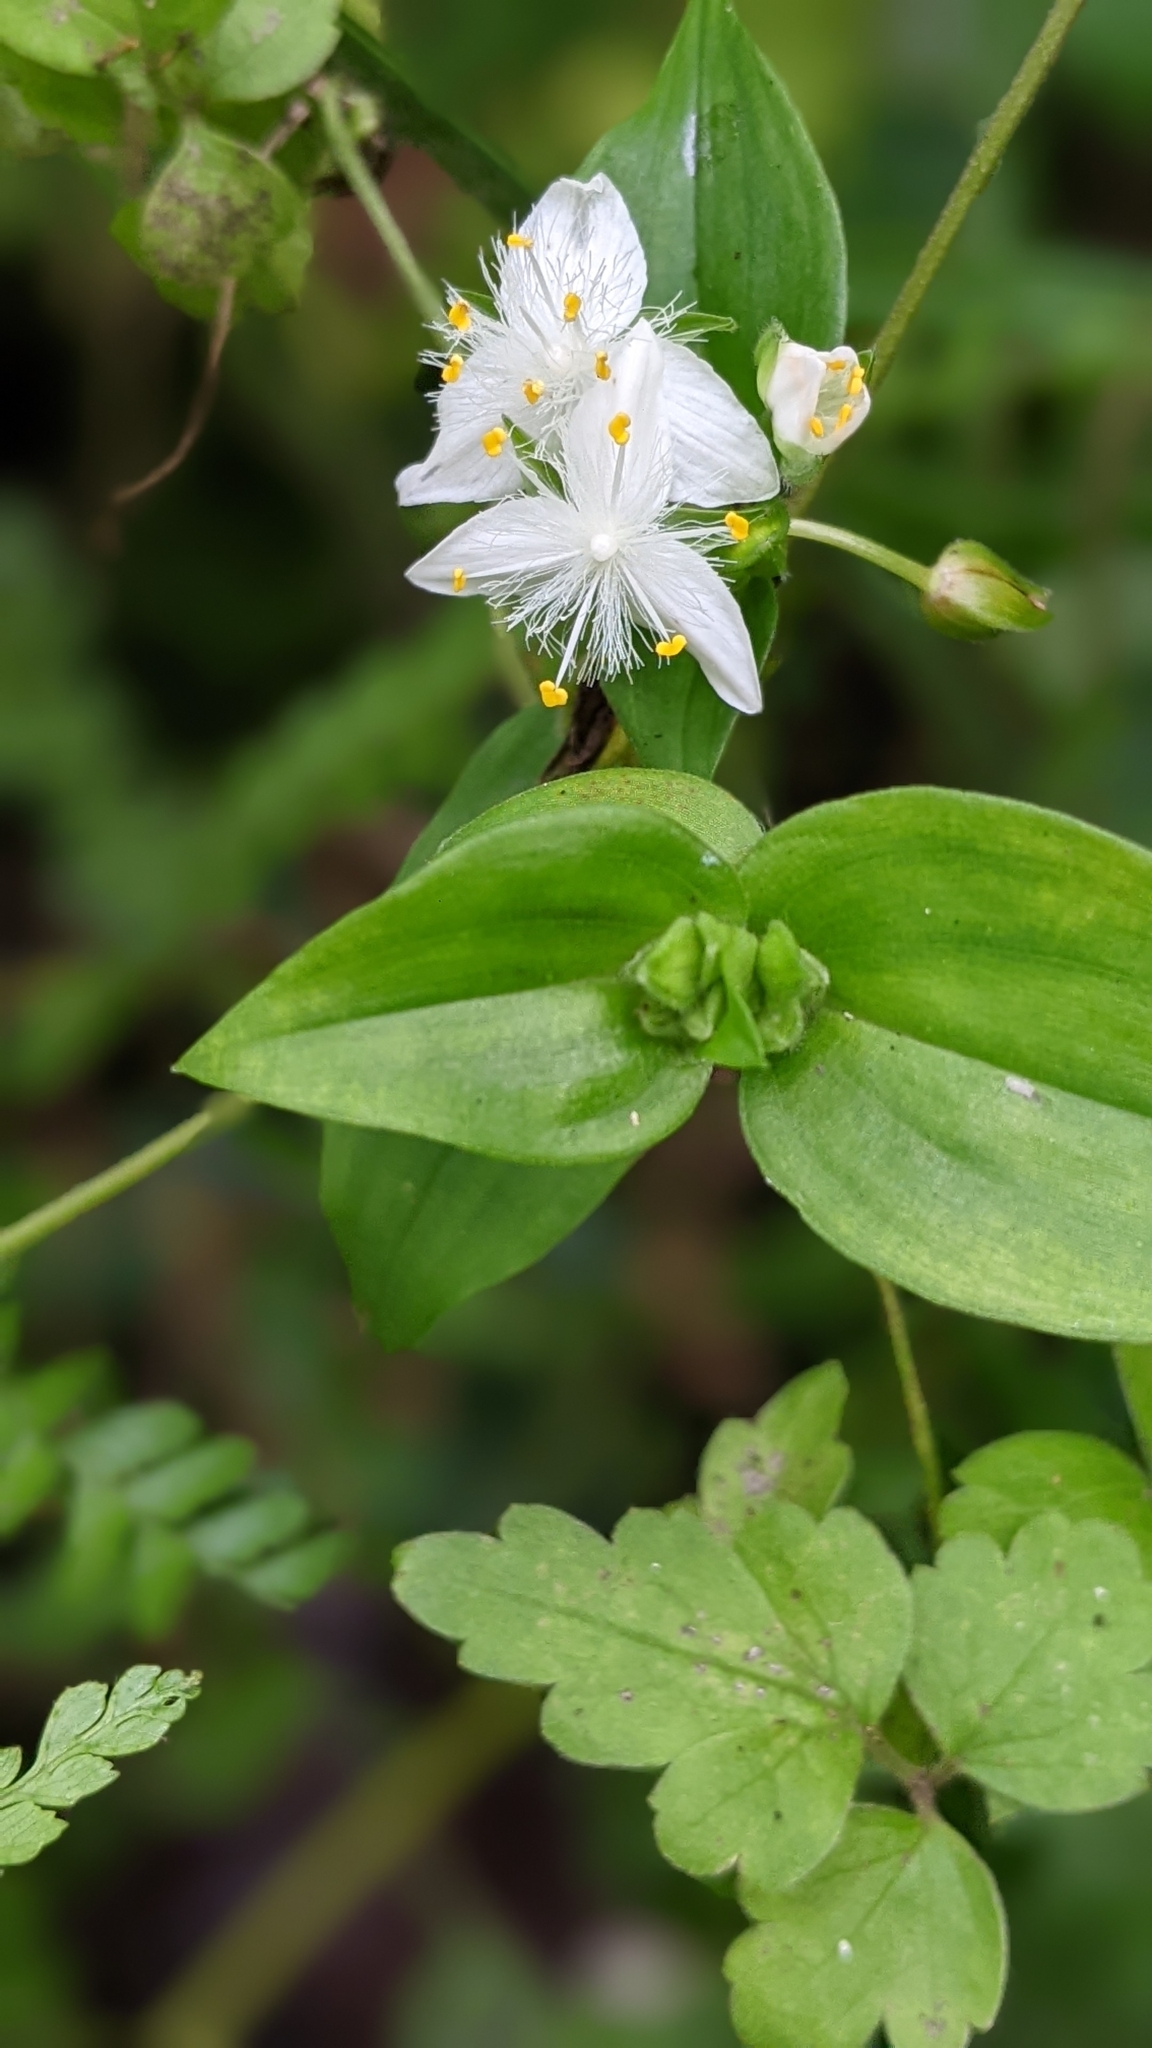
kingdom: Plantae
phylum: Tracheophyta
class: Liliopsida
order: Commelinales
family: Commelinaceae
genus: Tradescantia
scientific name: Tradescantia fluminensis
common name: Wandering-jew
